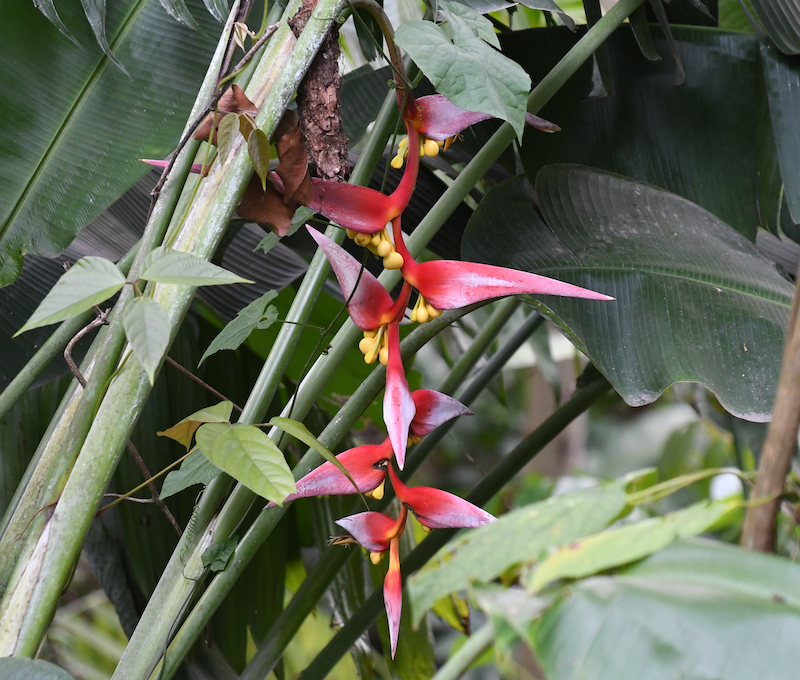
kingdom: Plantae
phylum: Tracheophyta
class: Liliopsida
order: Zingiberales
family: Heliconiaceae
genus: Heliconia
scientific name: Heliconia collinsiana
